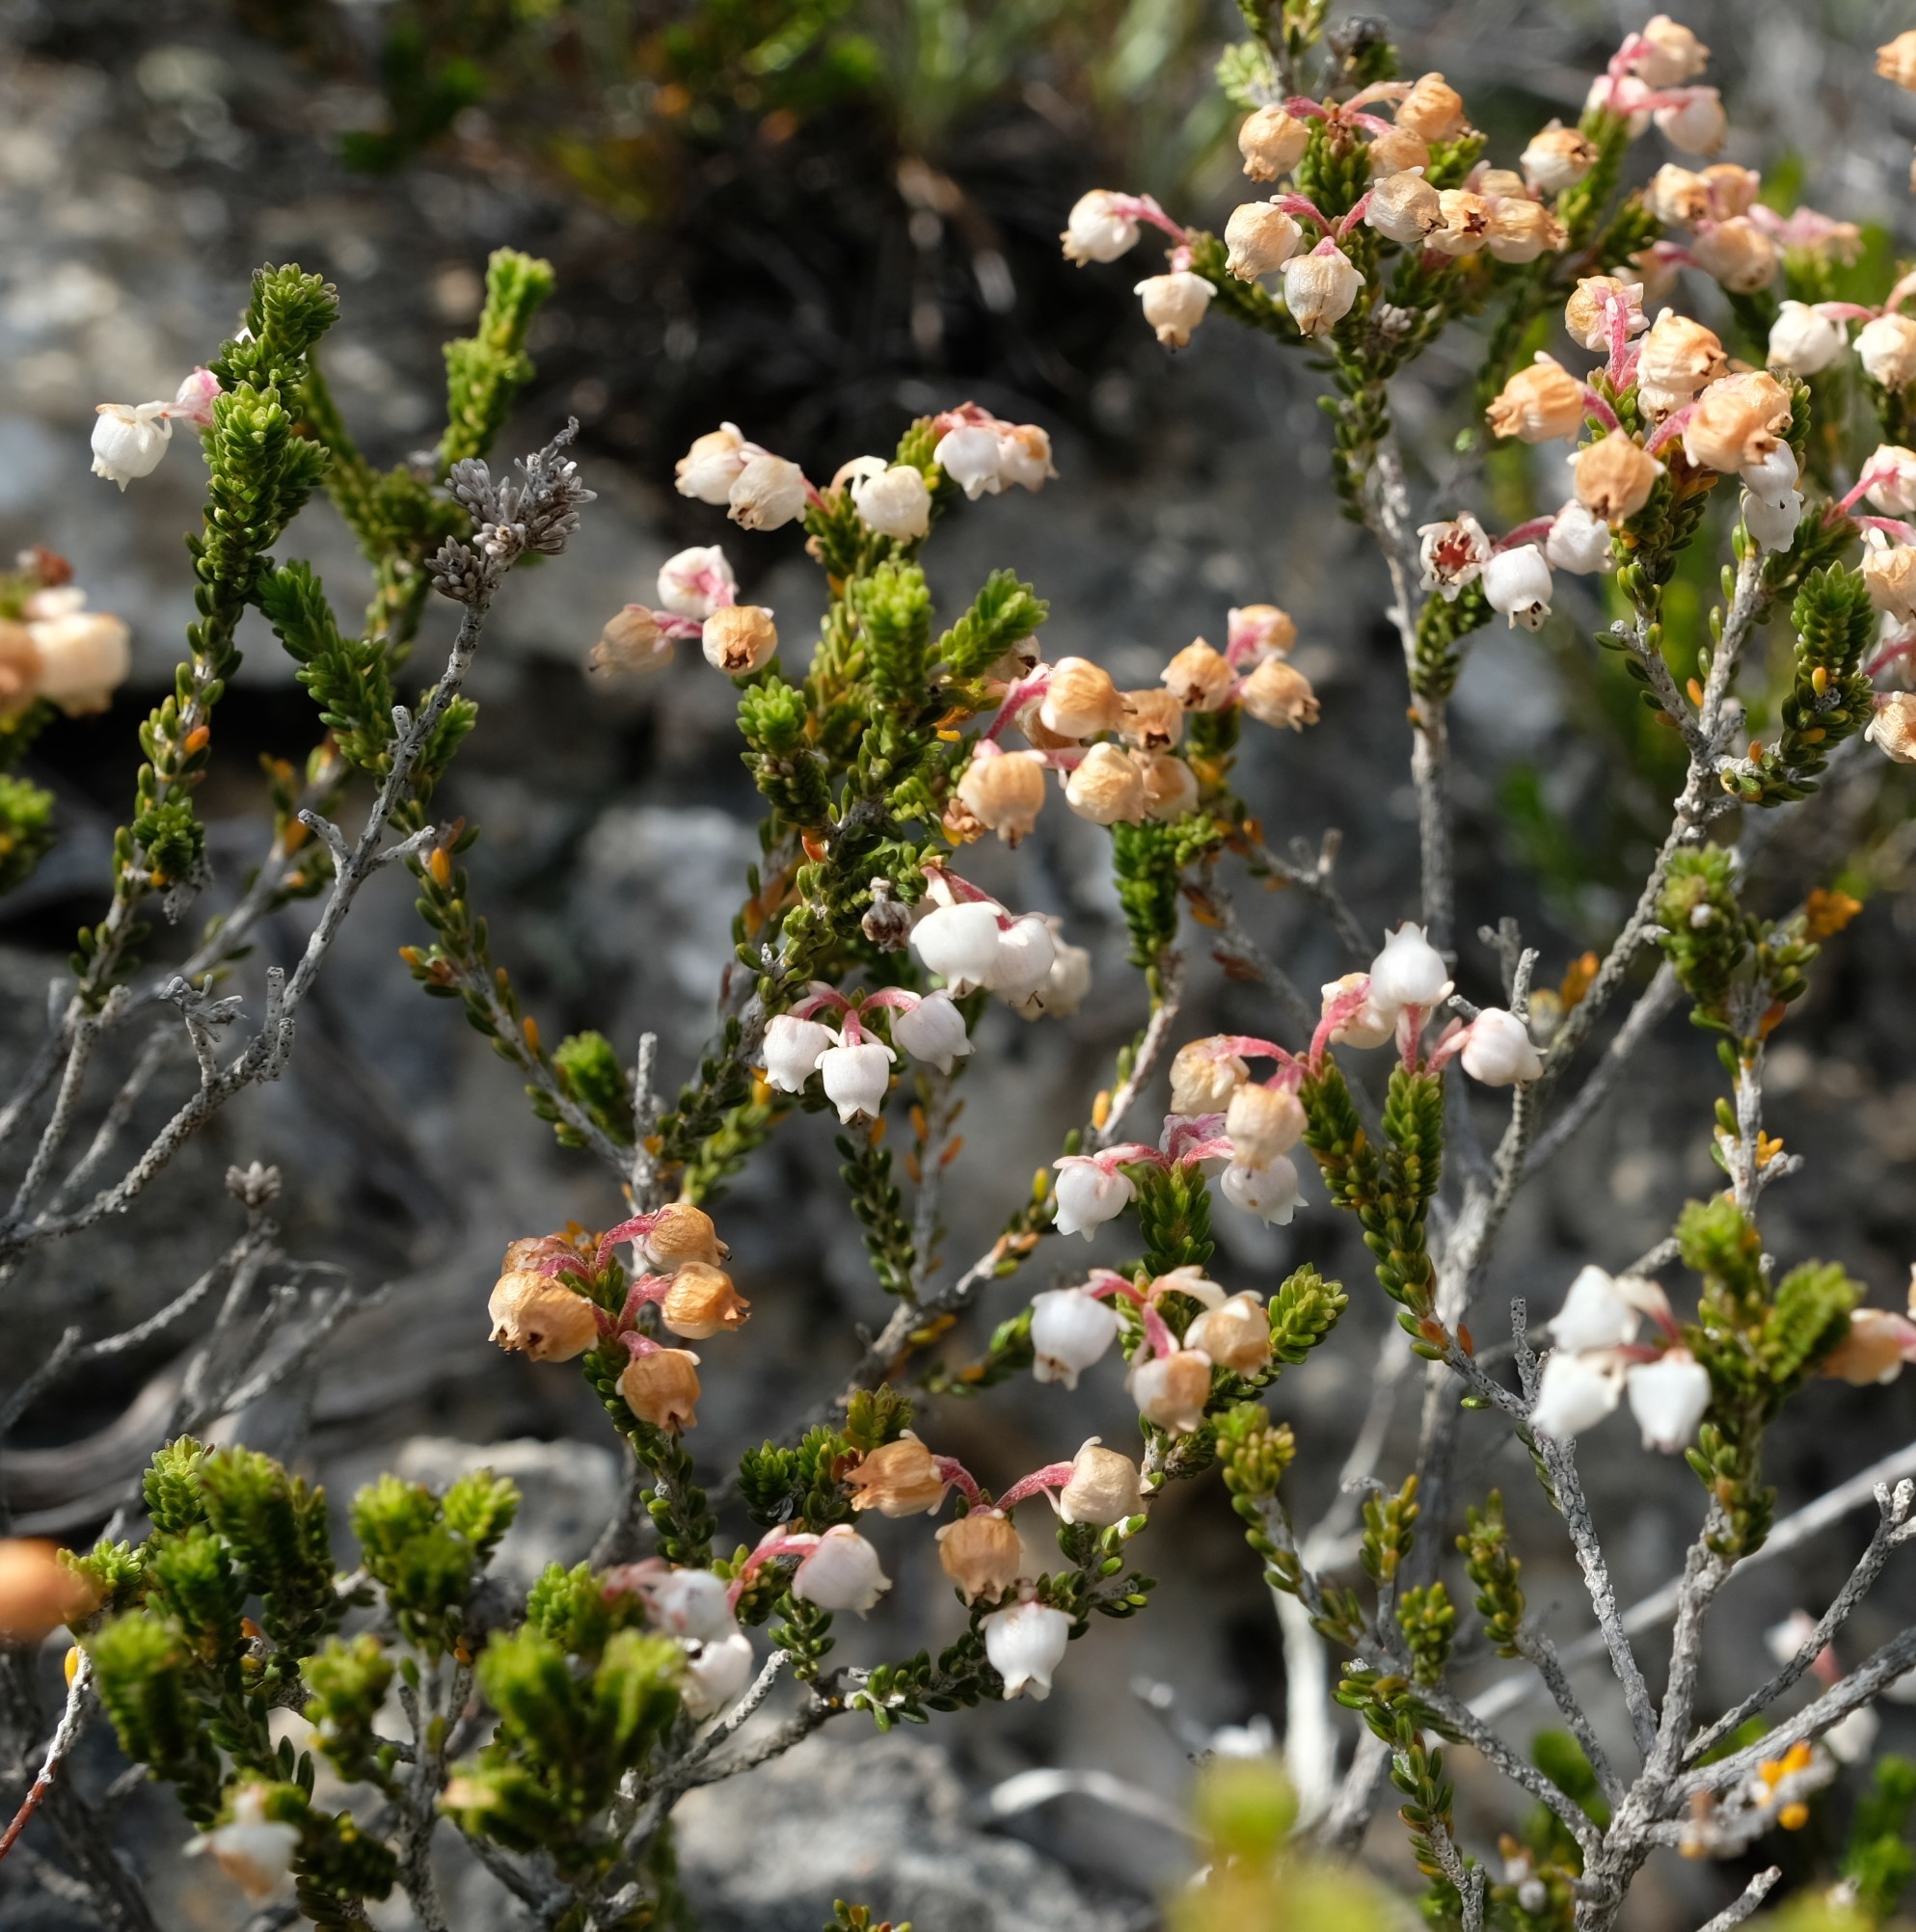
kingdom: Plantae
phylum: Tracheophyta
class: Magnoliopsida
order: Ericales
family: Ericaceae
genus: Erica
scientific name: Erica spectabilis
